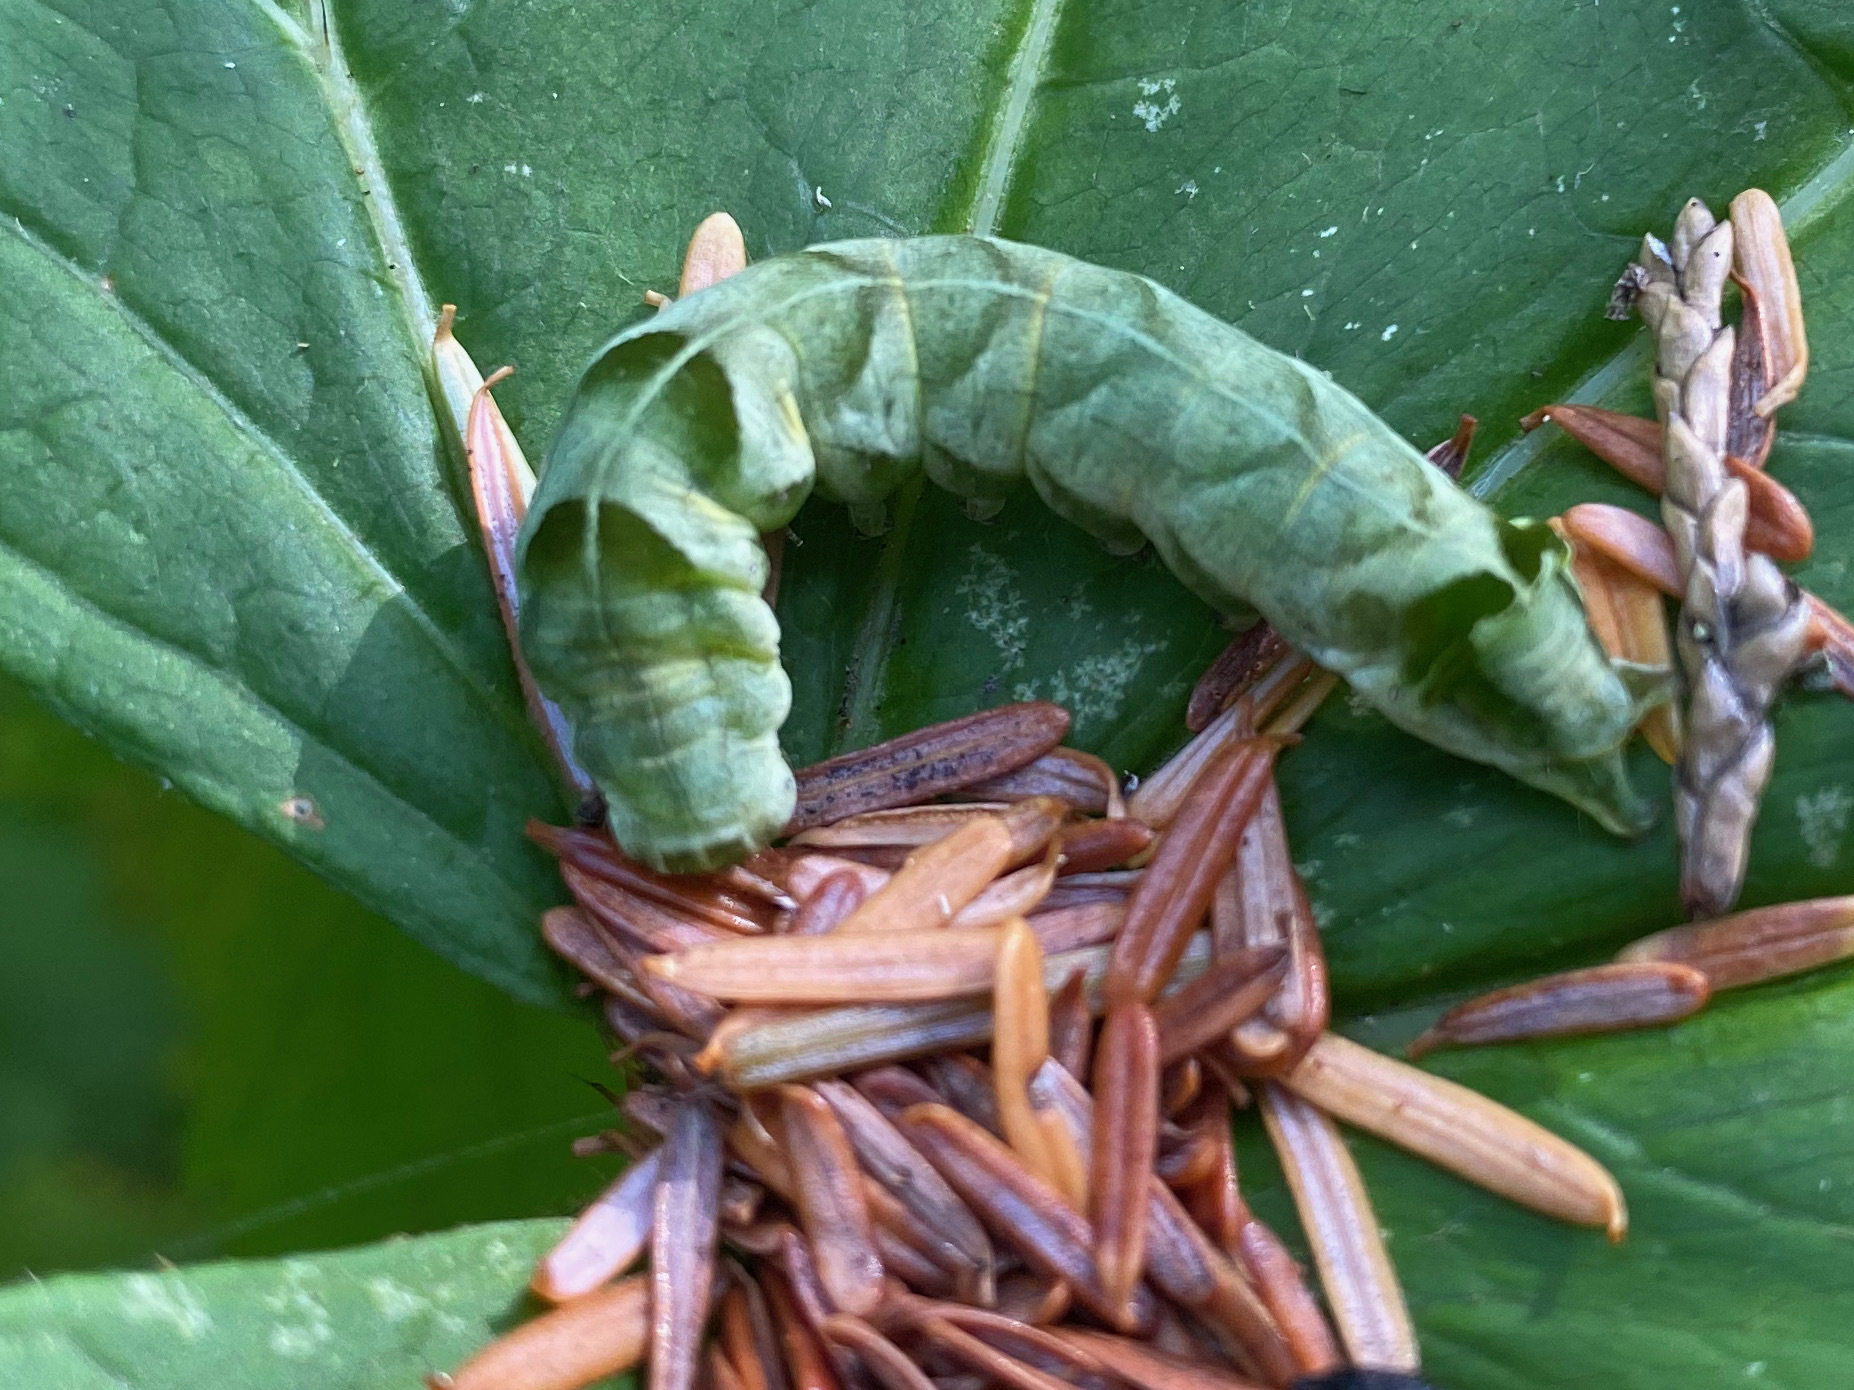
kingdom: Animalia
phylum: Arthropoda
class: Insecta
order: Lepidoptera
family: Noctuidae
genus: Melanchra
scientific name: Melanchra adjuncta
